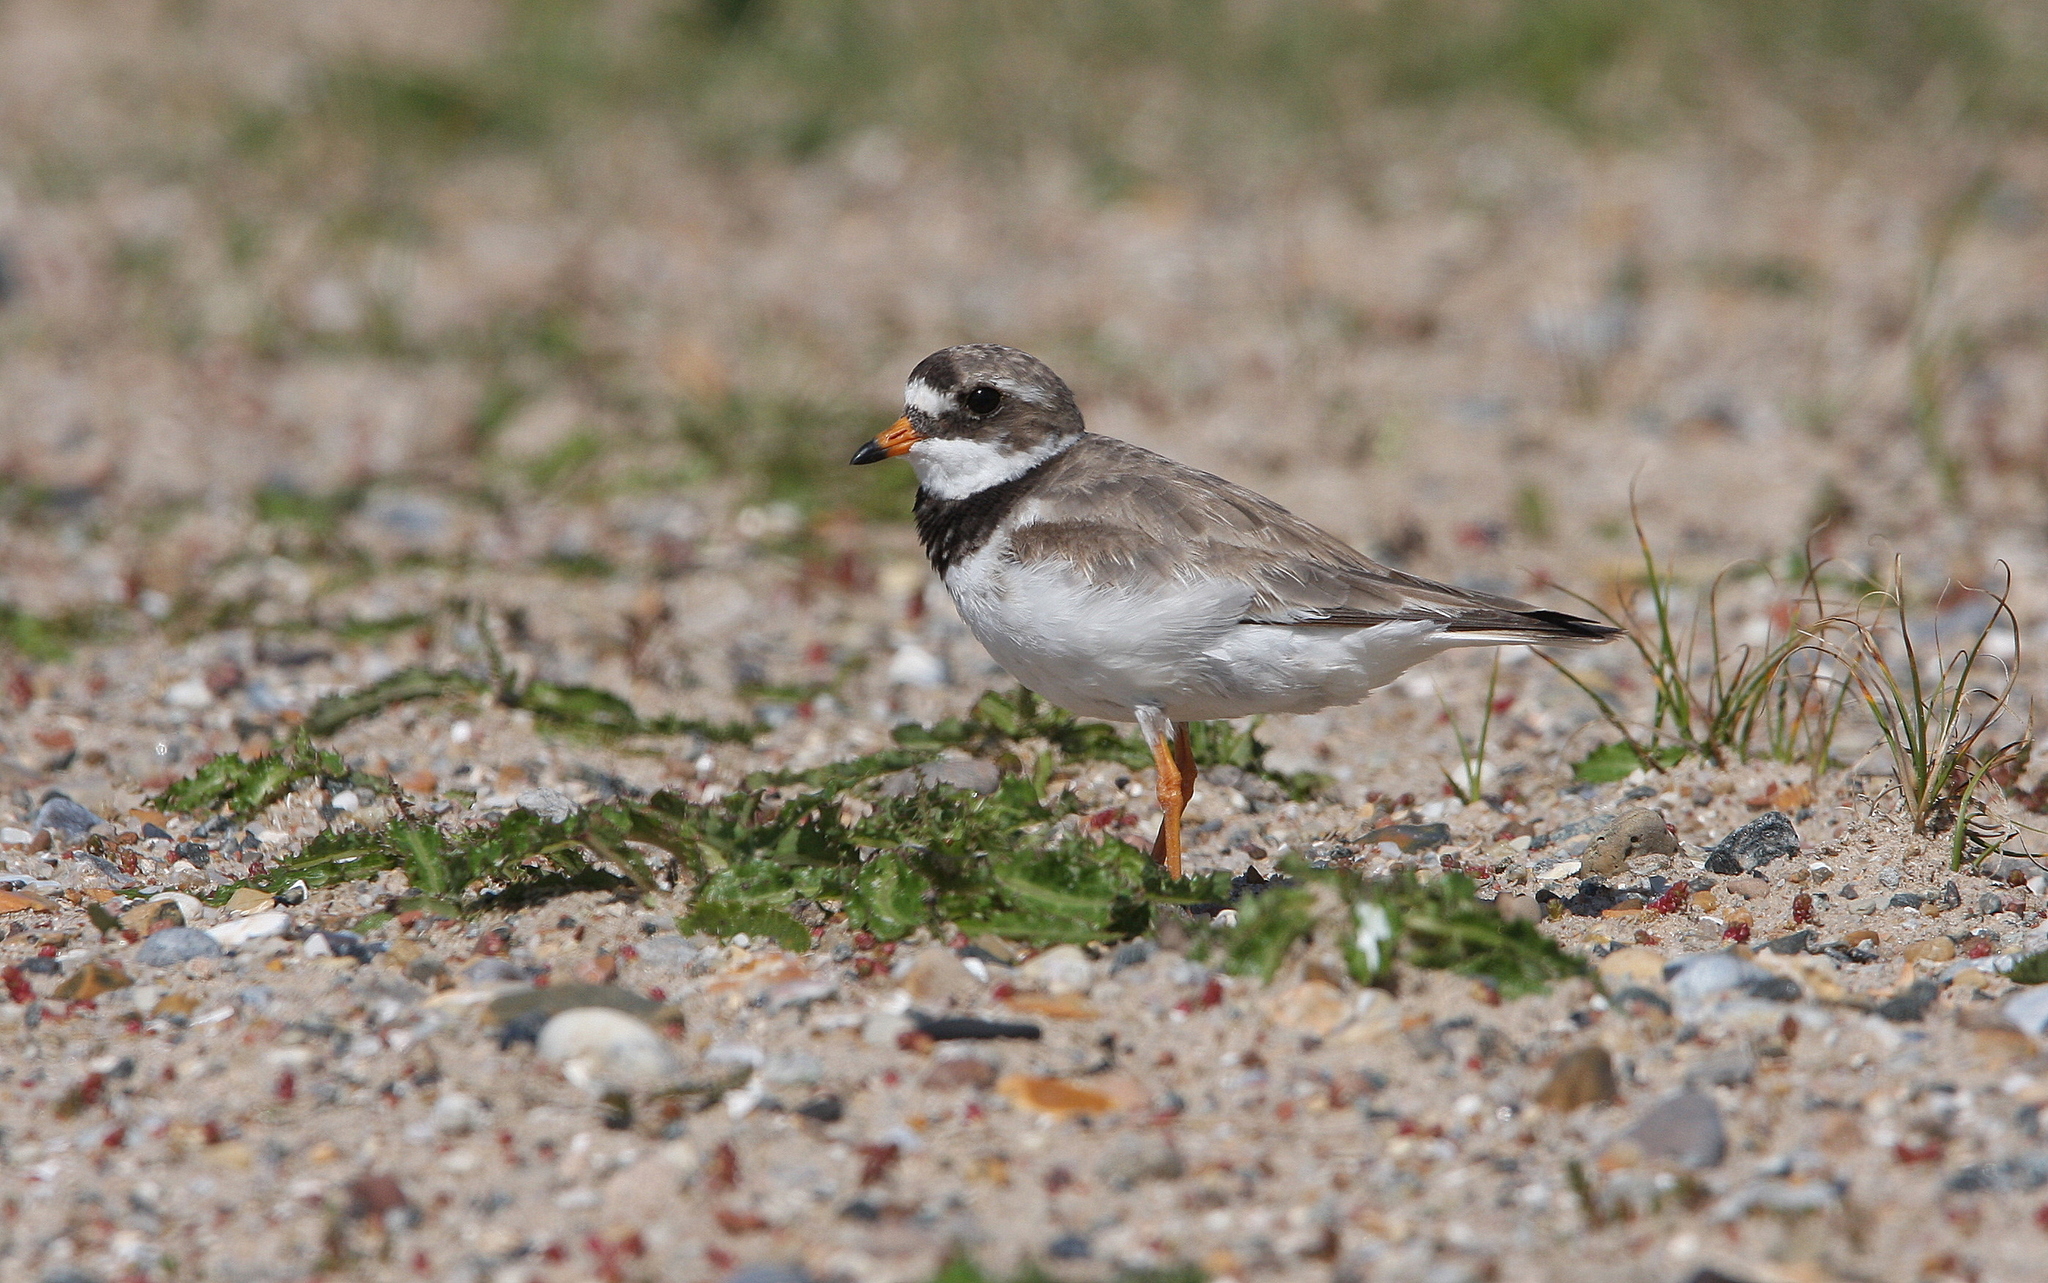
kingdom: Animalia
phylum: Chordata
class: Aves
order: Charadriiformes
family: Charadriidae
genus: Charadrius
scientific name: Charadrius hiaticula
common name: Common ringed plover
